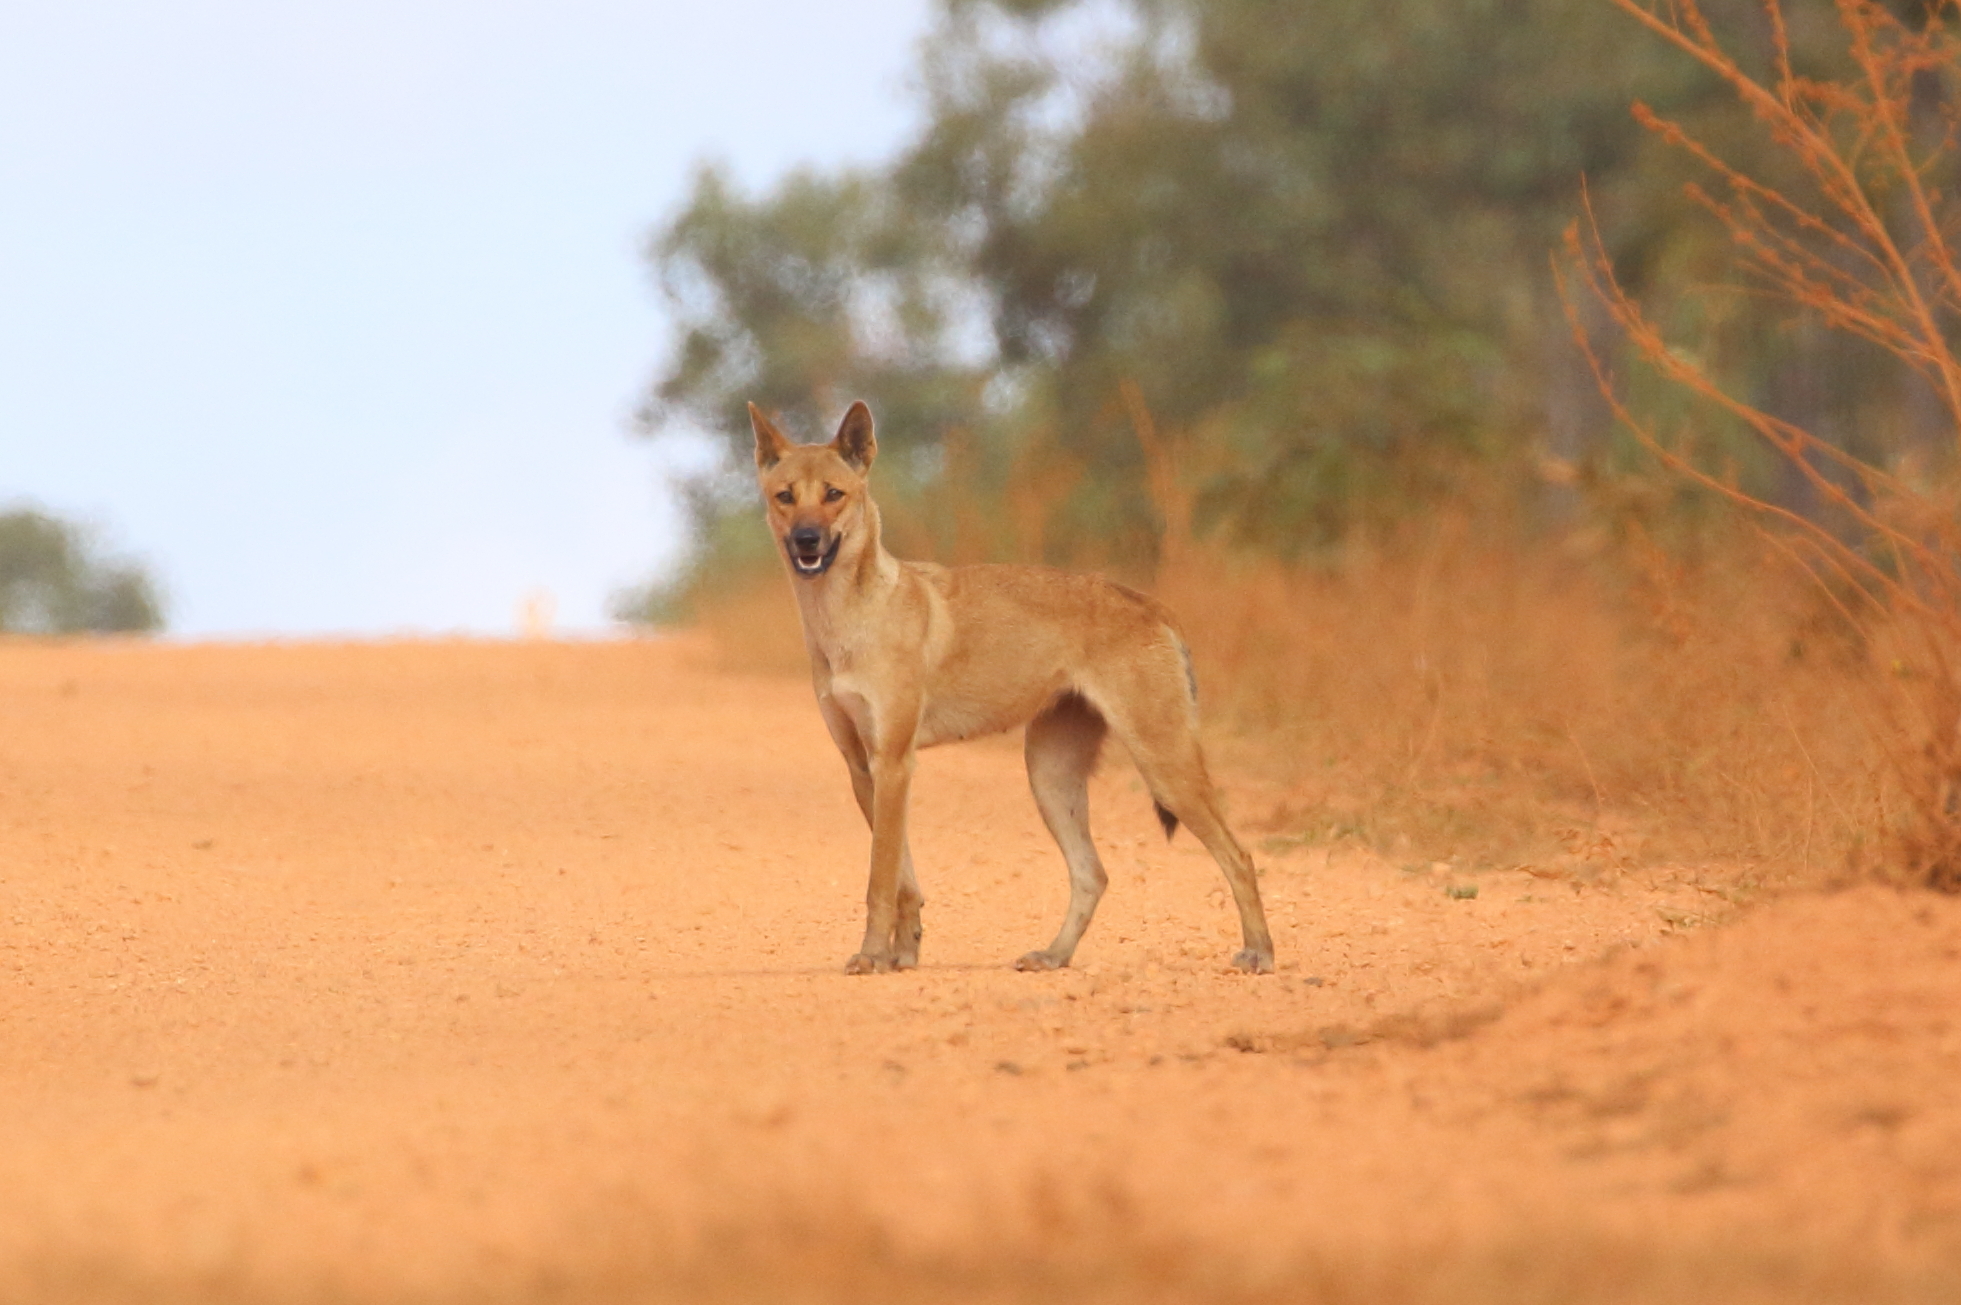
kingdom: Animalia
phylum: Chordata
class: Mammalia
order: Carnivora
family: Canidae
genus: Canis
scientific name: Canis lupus
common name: Gray wolf
